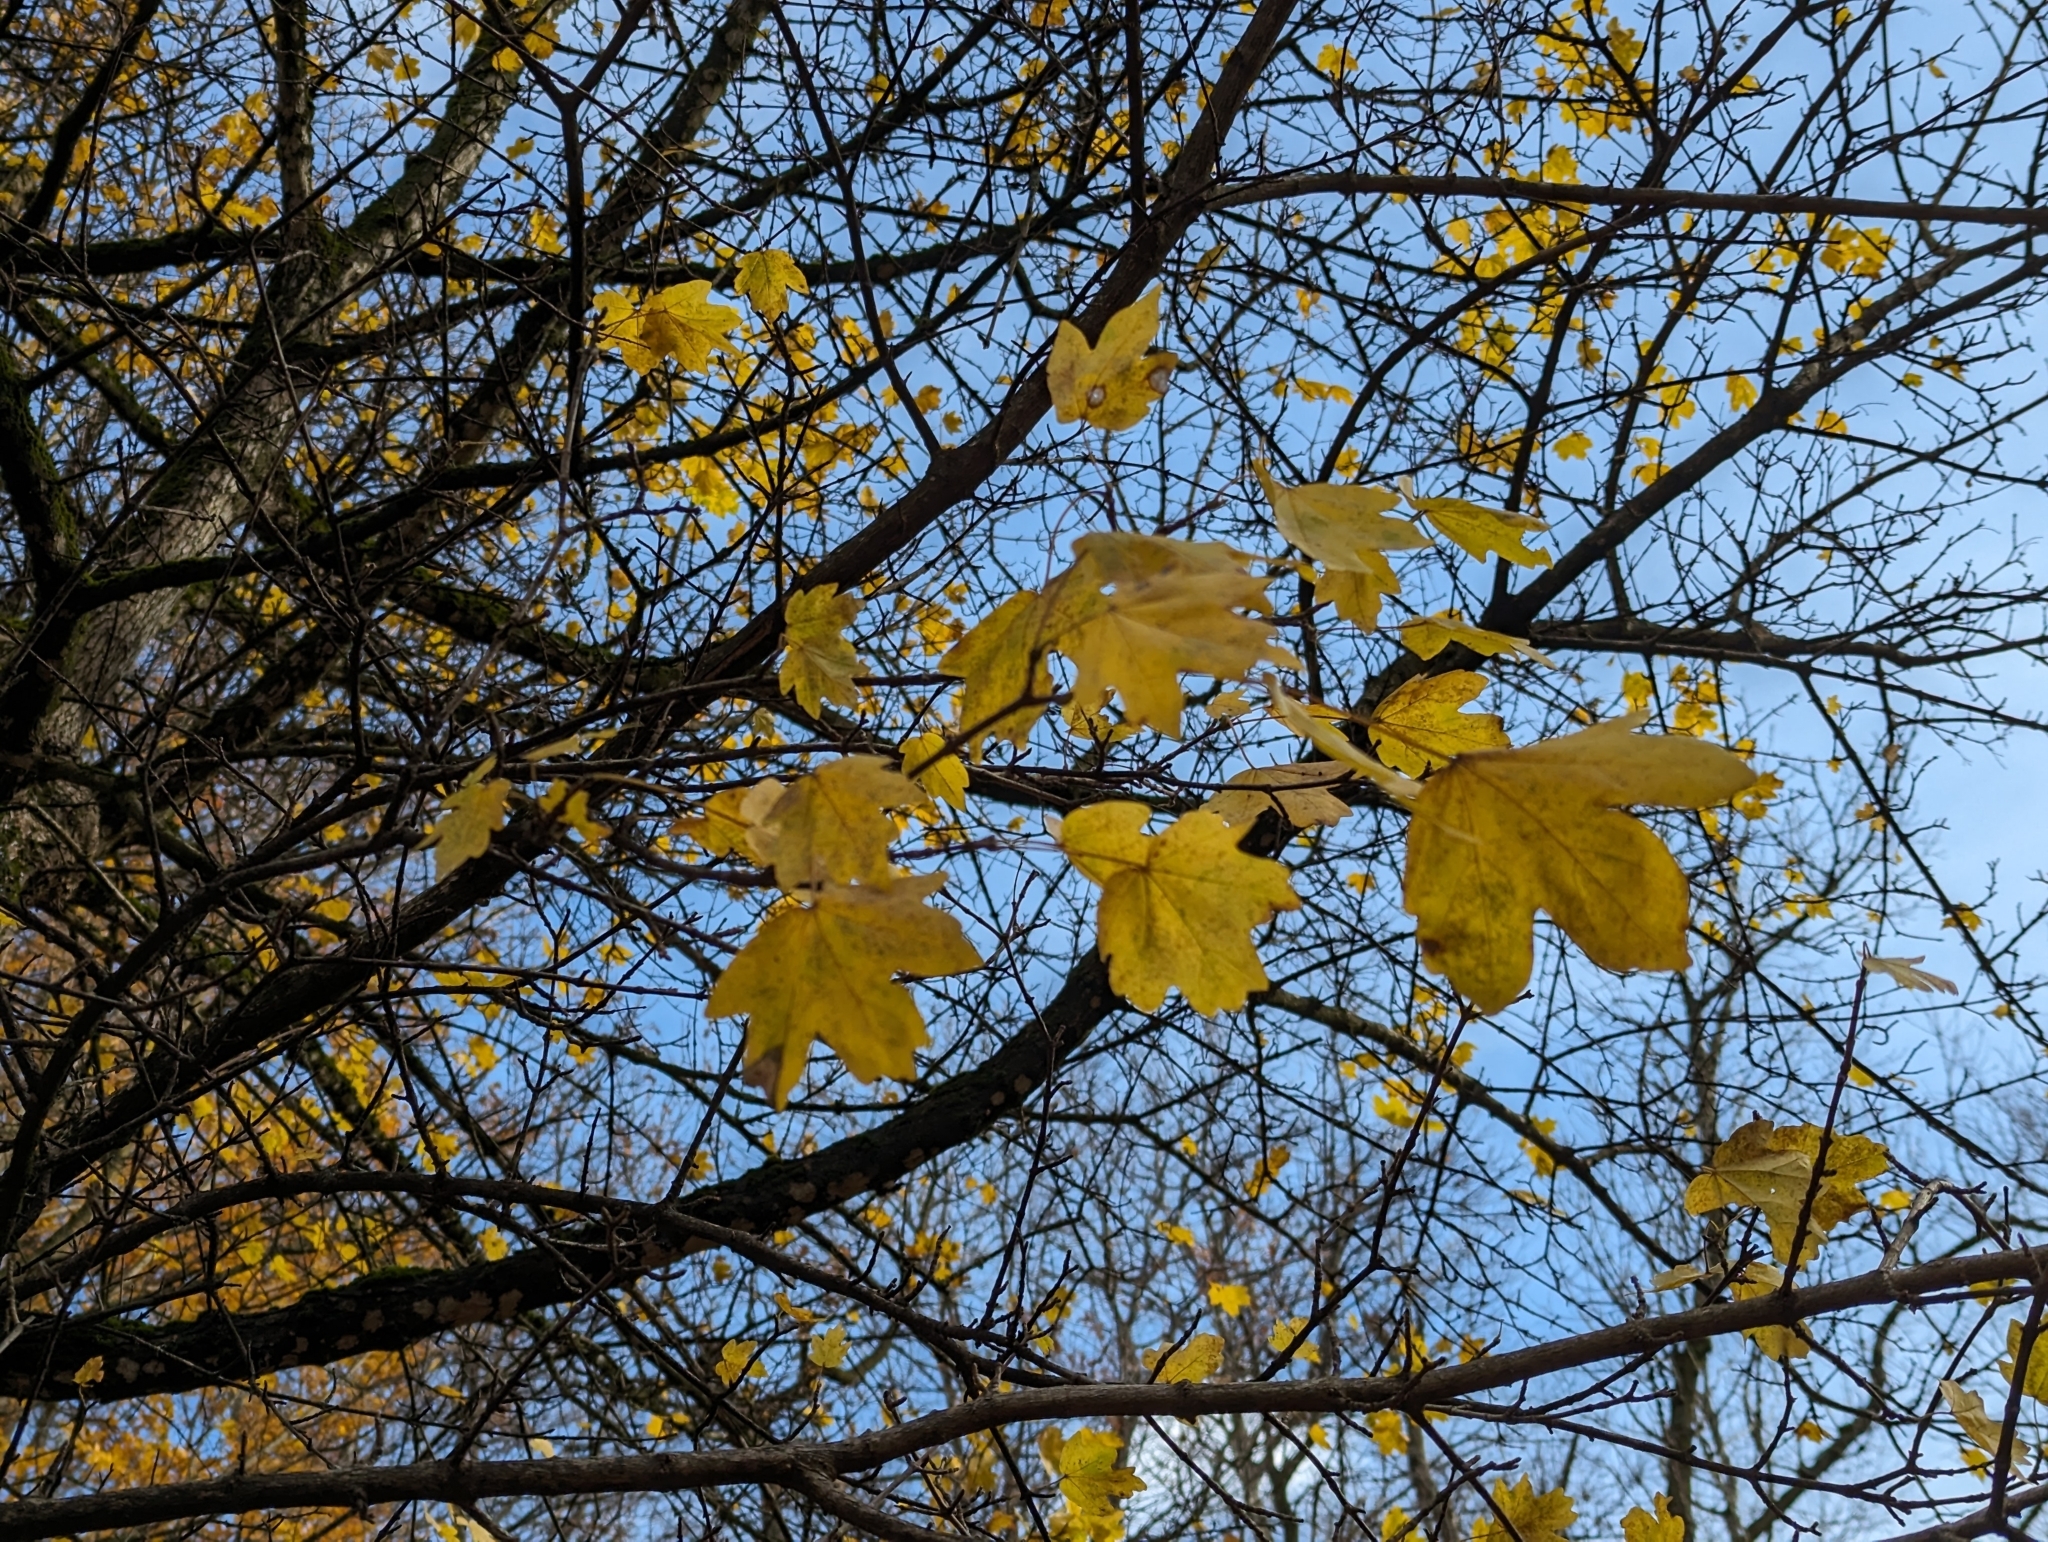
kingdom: Plantae
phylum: Tracheophyta
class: Magnoliopsida
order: Sapindales
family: Sapindaceae
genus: Acer
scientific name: Acer campestre
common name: Field maple
